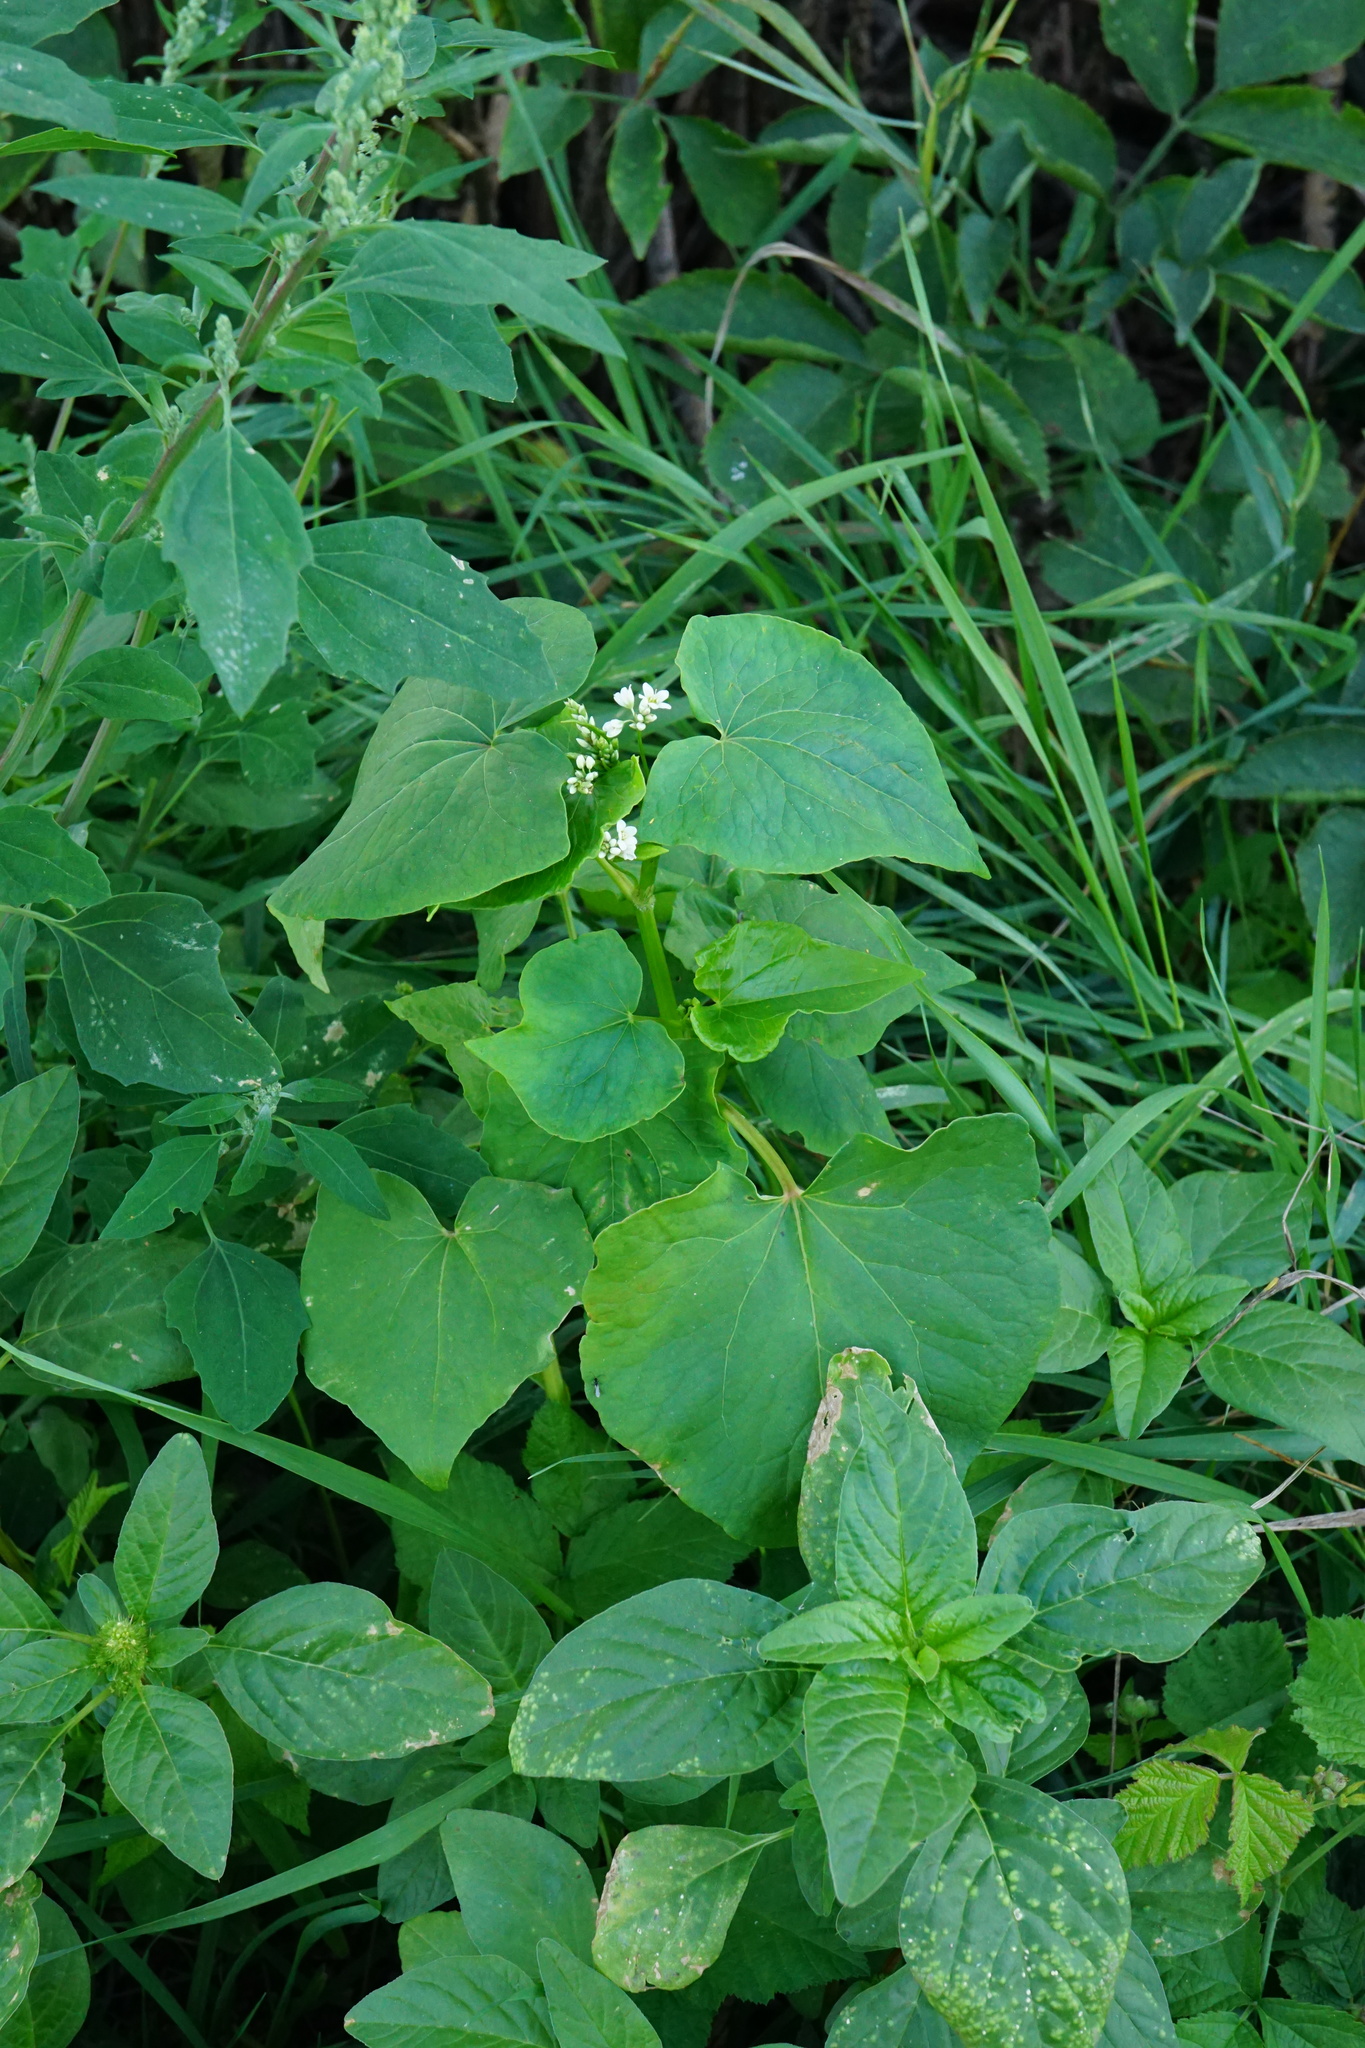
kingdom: Plantae
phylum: Tracheophyta
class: Magnoliopsida
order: Caryophyllales
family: Polygonaceae
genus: Fagopyrum
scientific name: Fagopyrum esculentum
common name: Buckwheat
